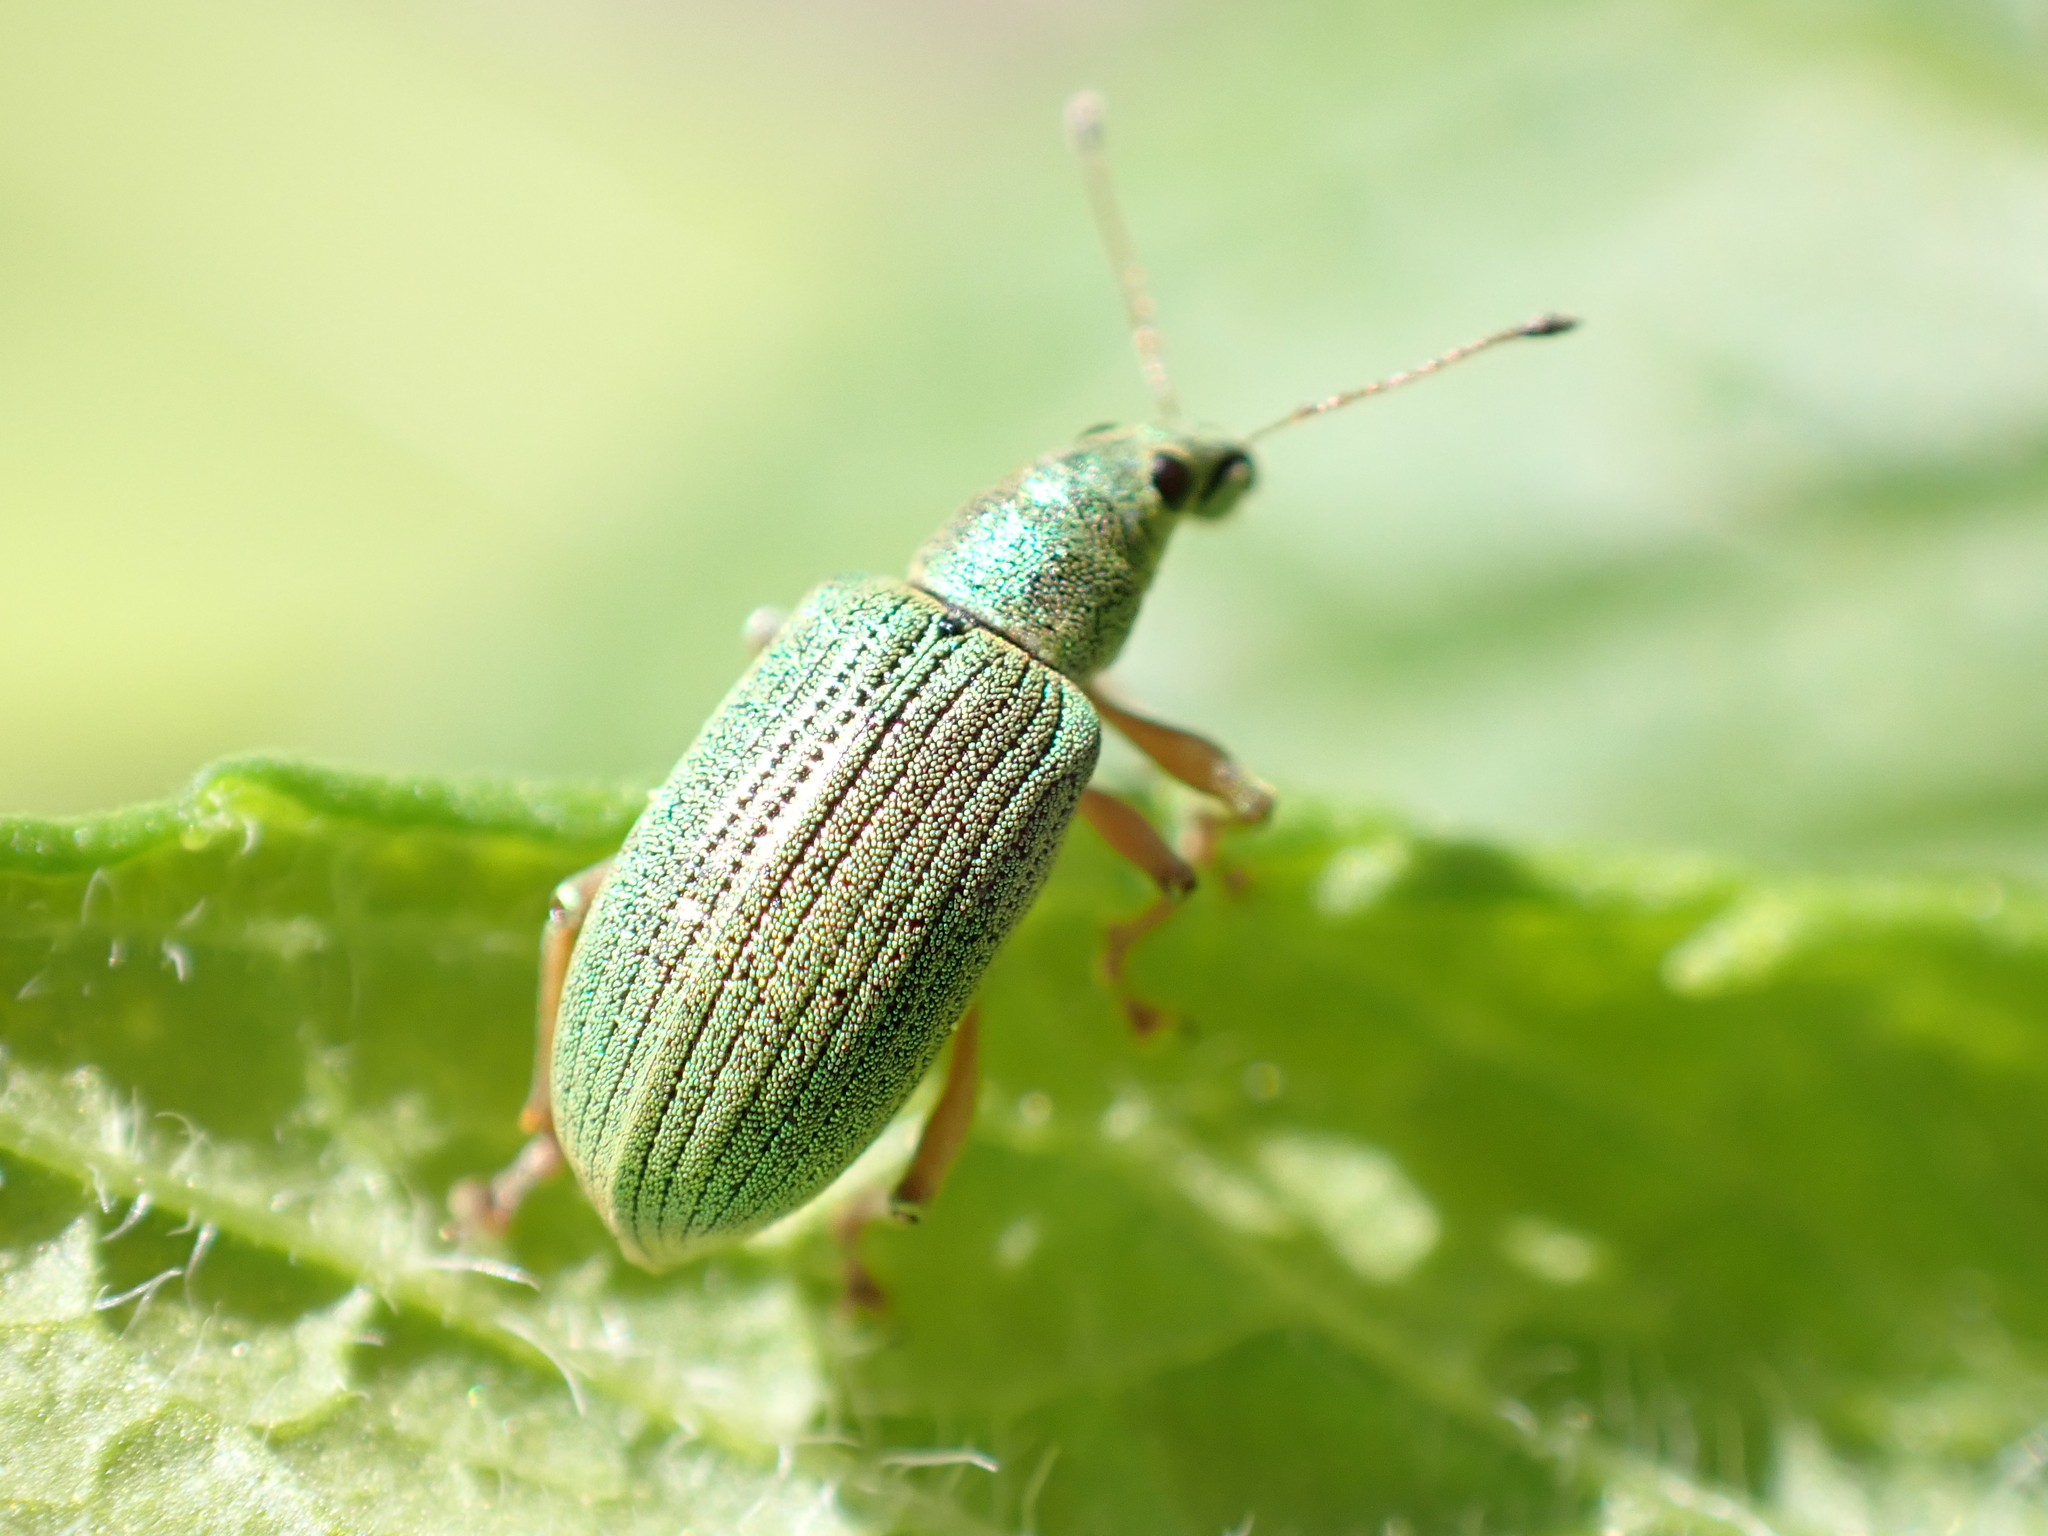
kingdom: Animalia
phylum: Arthropoda
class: Insecta
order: Coleoptera
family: Curculionidae
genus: Polydrusus
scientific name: Polydrusus formosus
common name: Weevil
